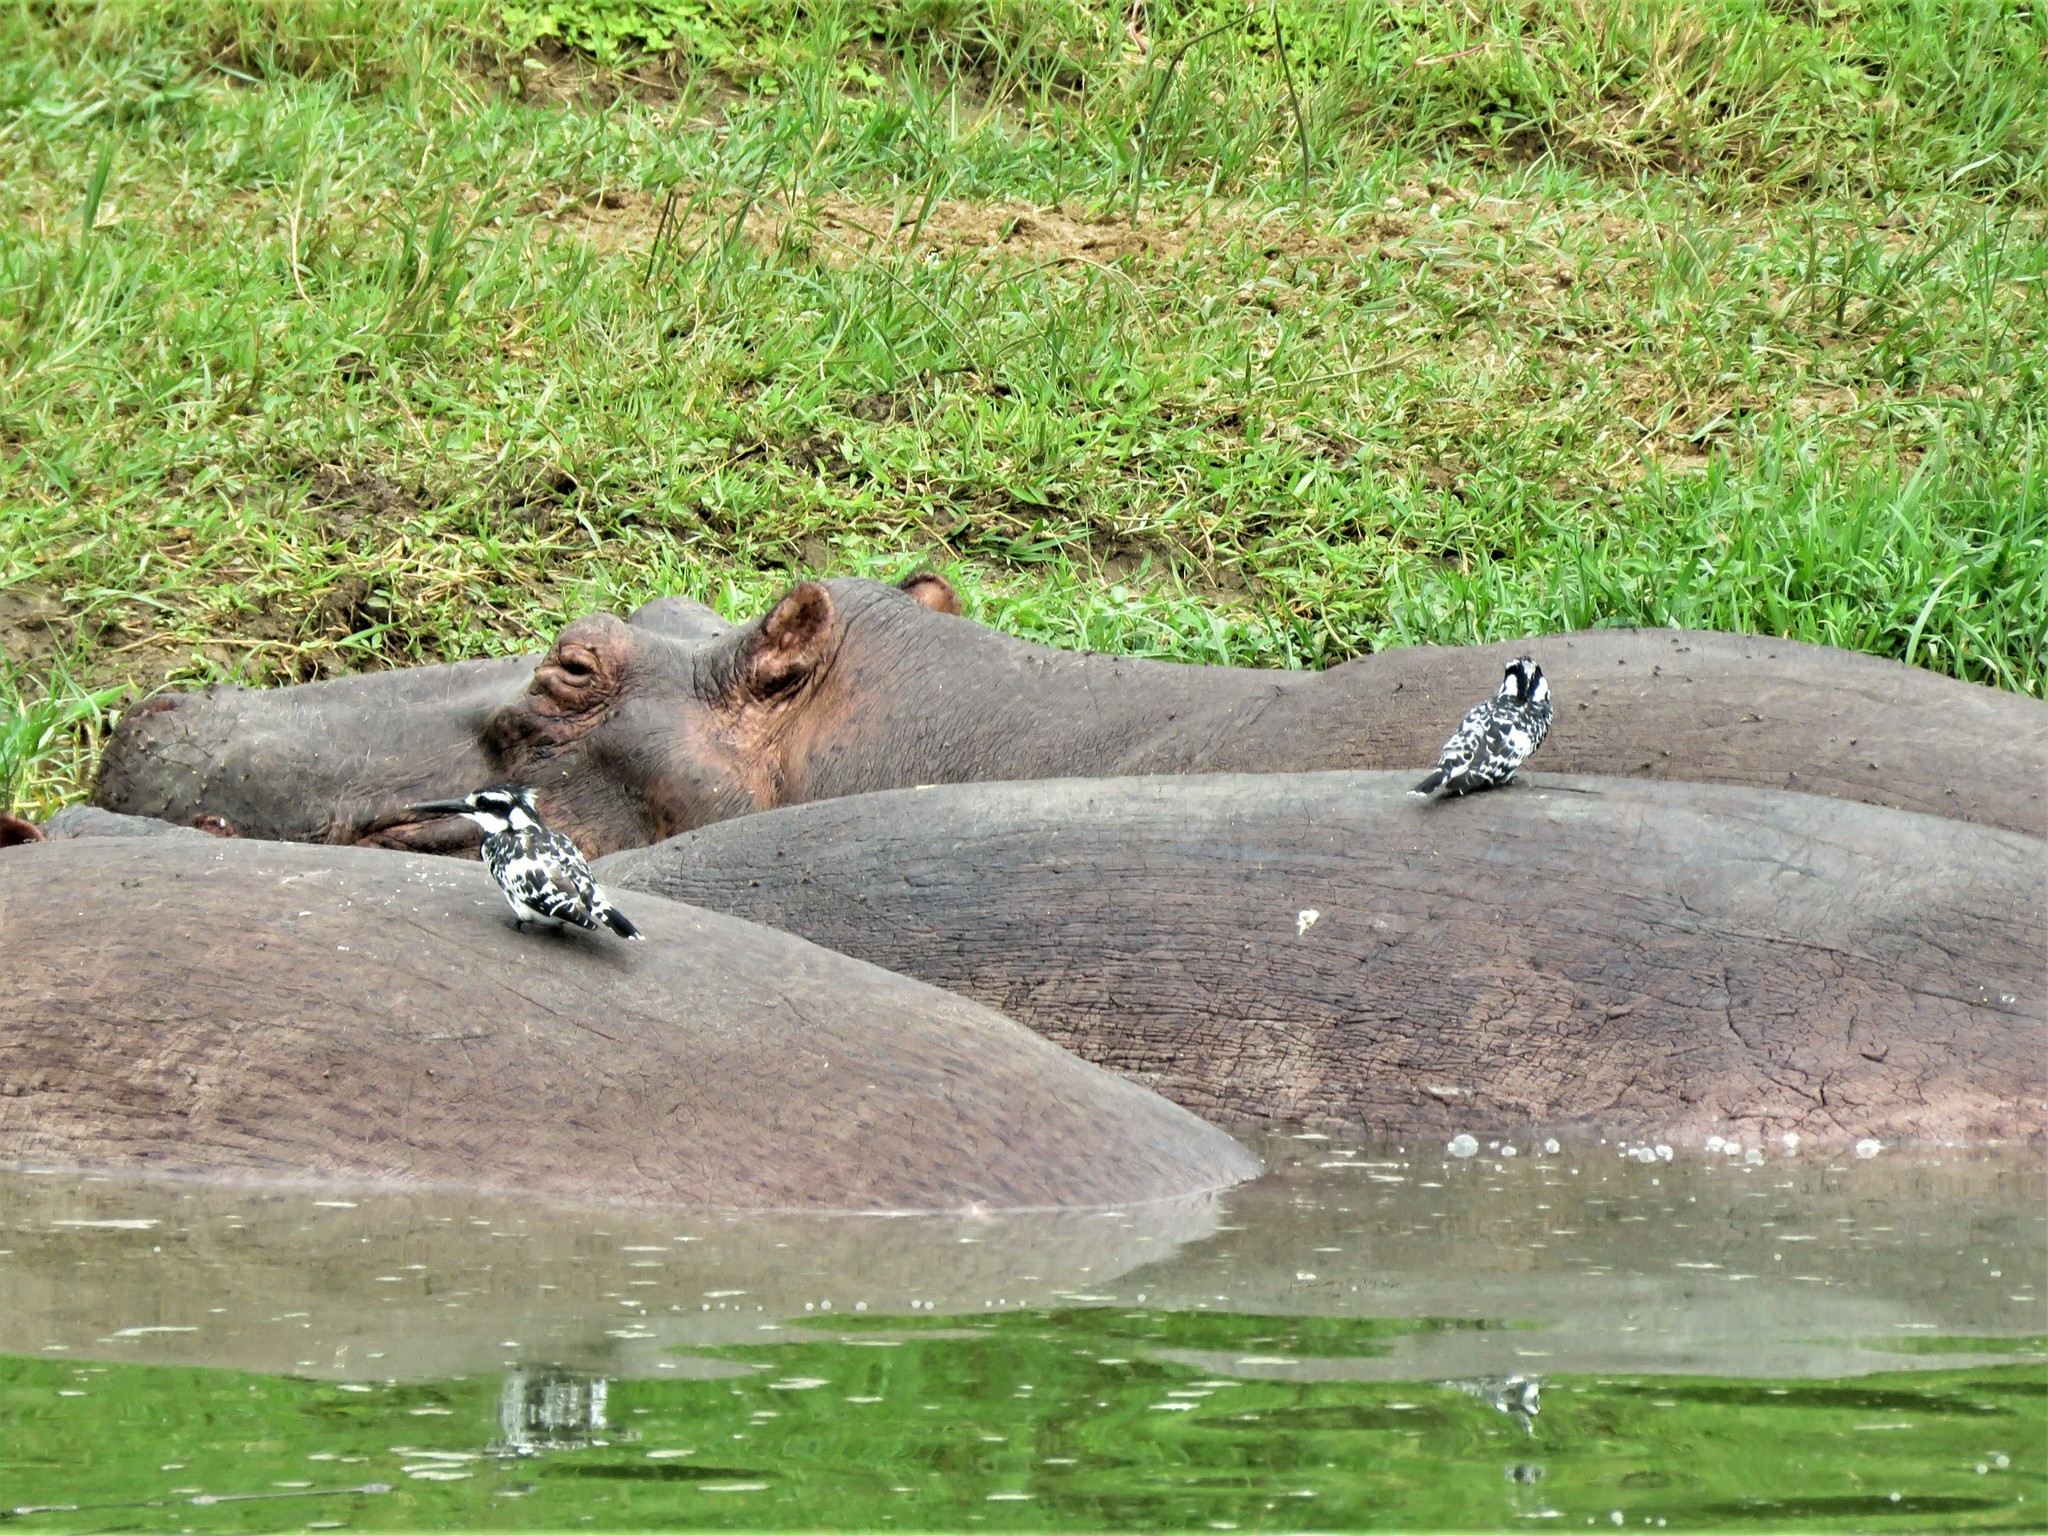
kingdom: Animalia
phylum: Chordata
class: Mammalia
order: Artiodactyla
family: Hippopotamidae
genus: Hippopotamus
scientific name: Hippopotamus amphibius
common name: Common hippopotamus
